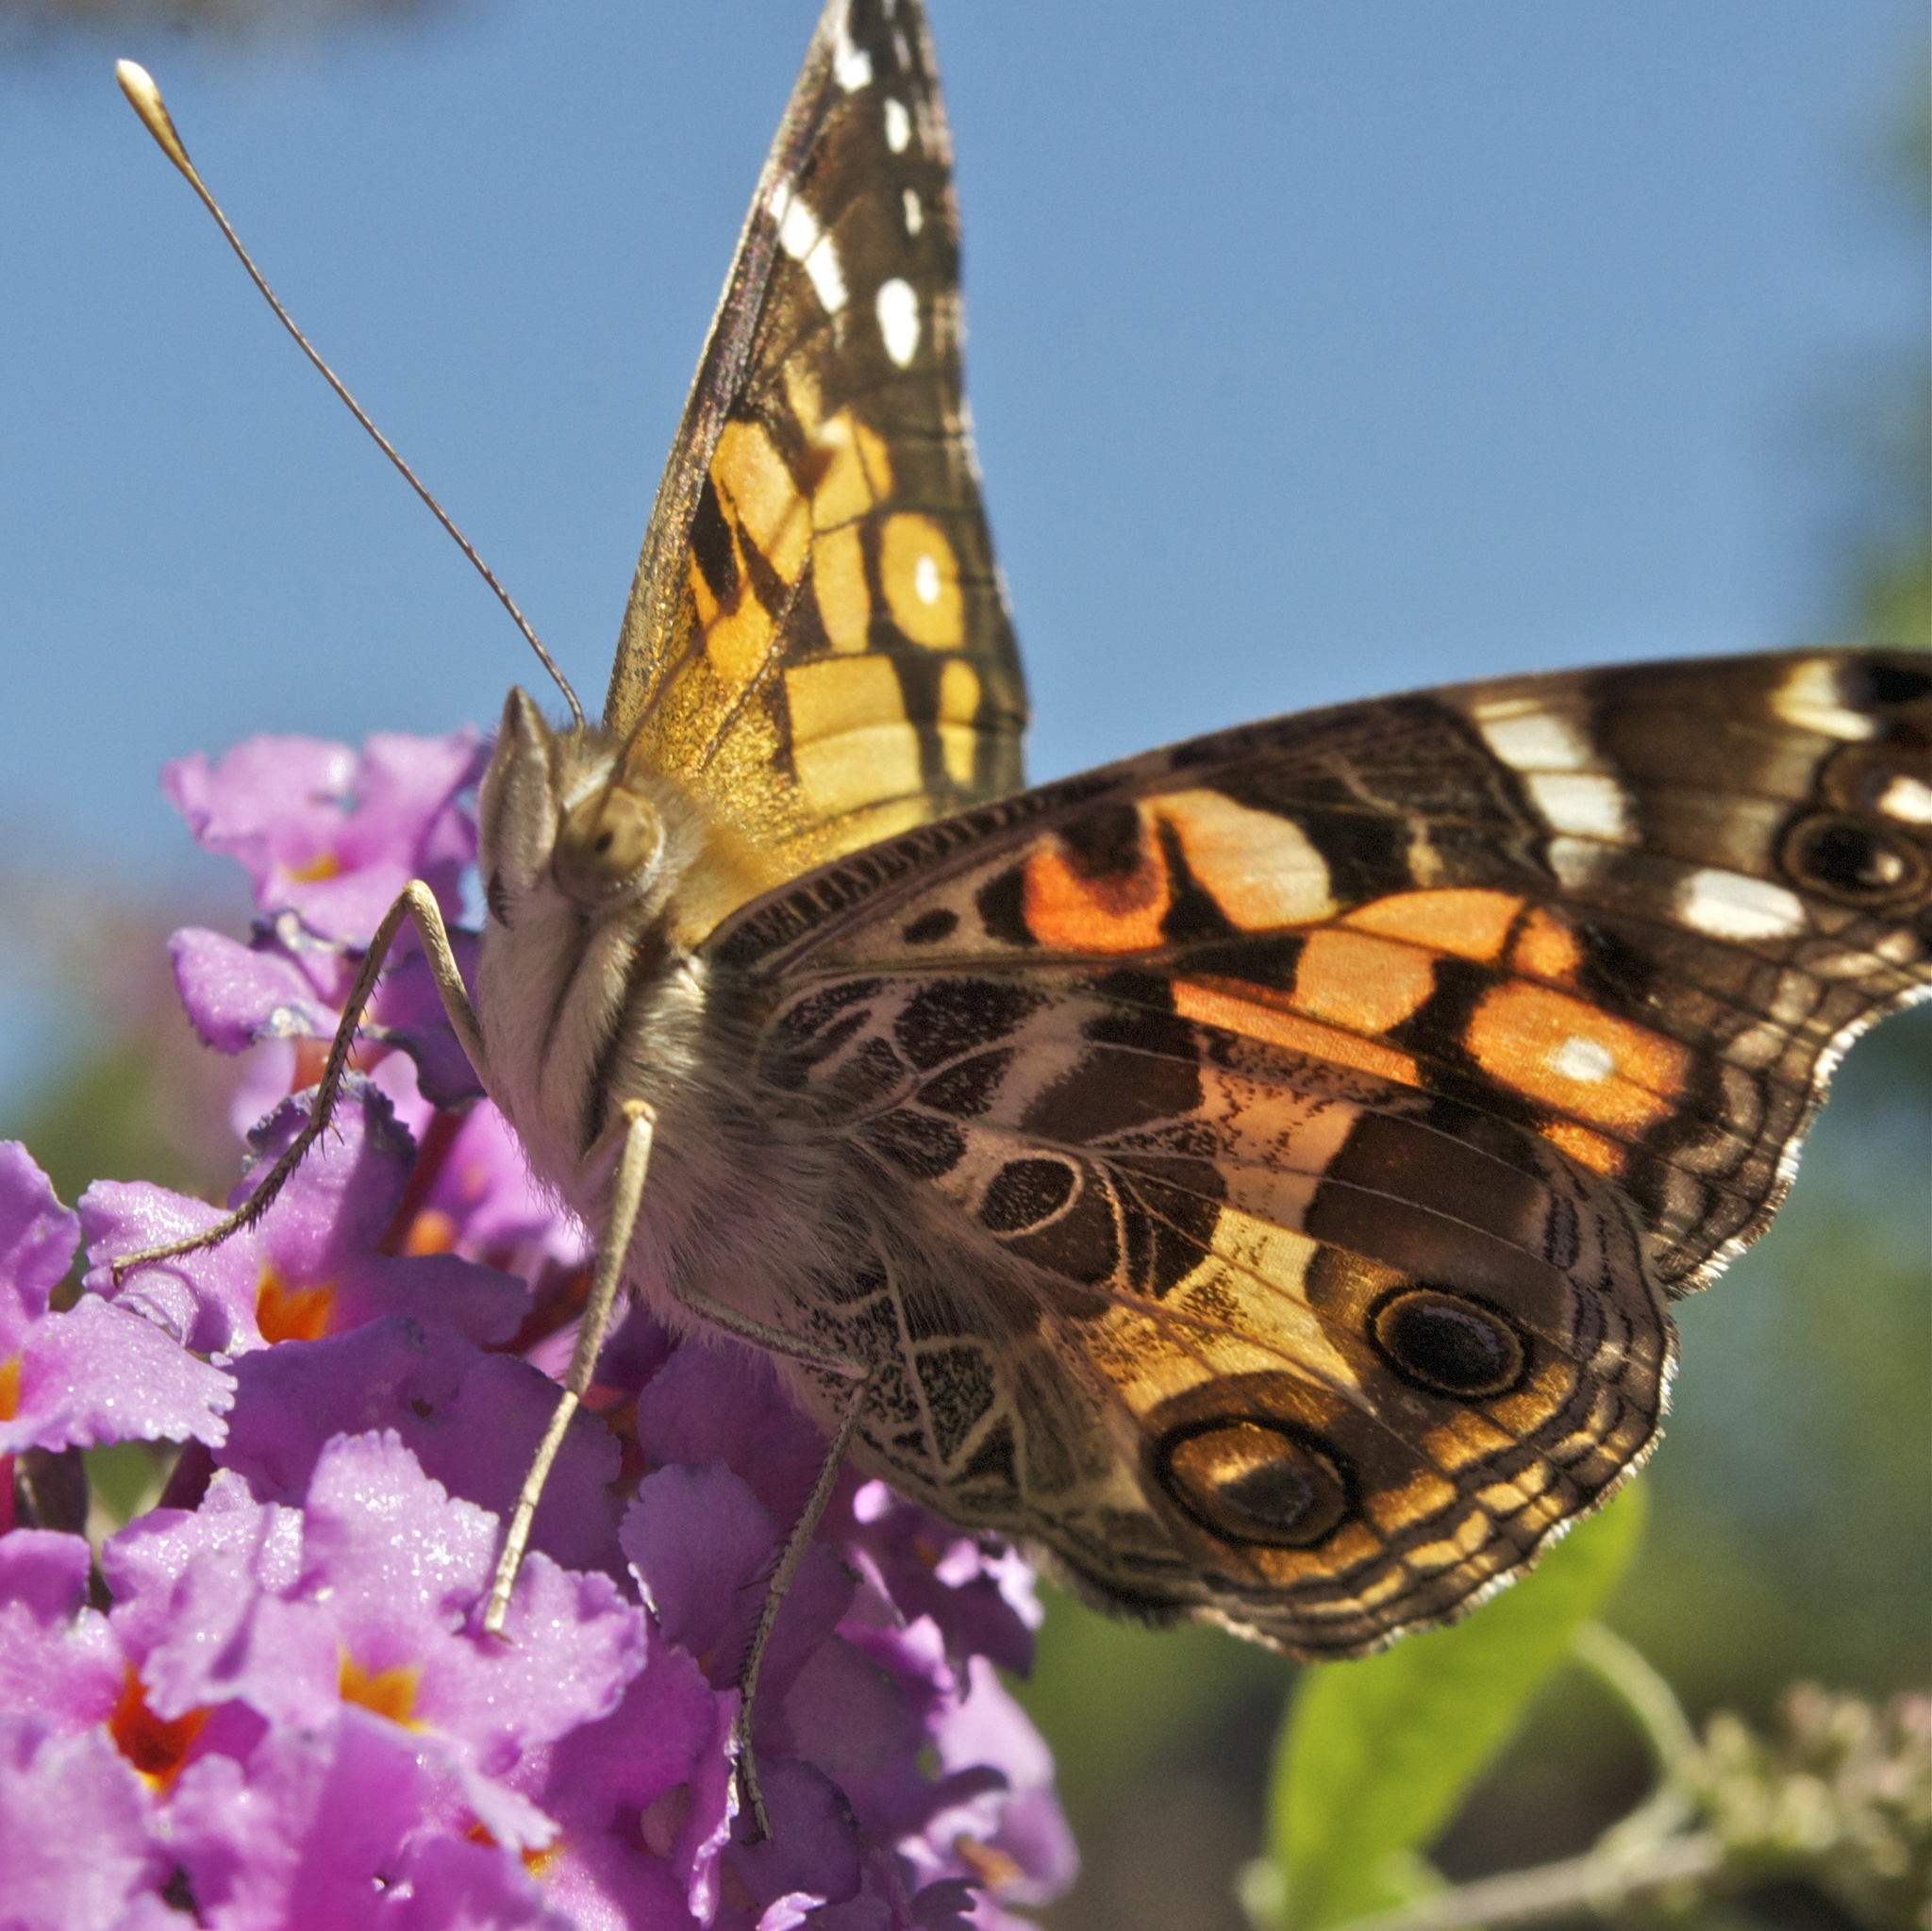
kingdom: Animalia
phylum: Arthropoda
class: Insecta
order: Lepidoptera
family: Nymphalidae
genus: Vanessa
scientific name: Vanessa virginiensis
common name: American lady
